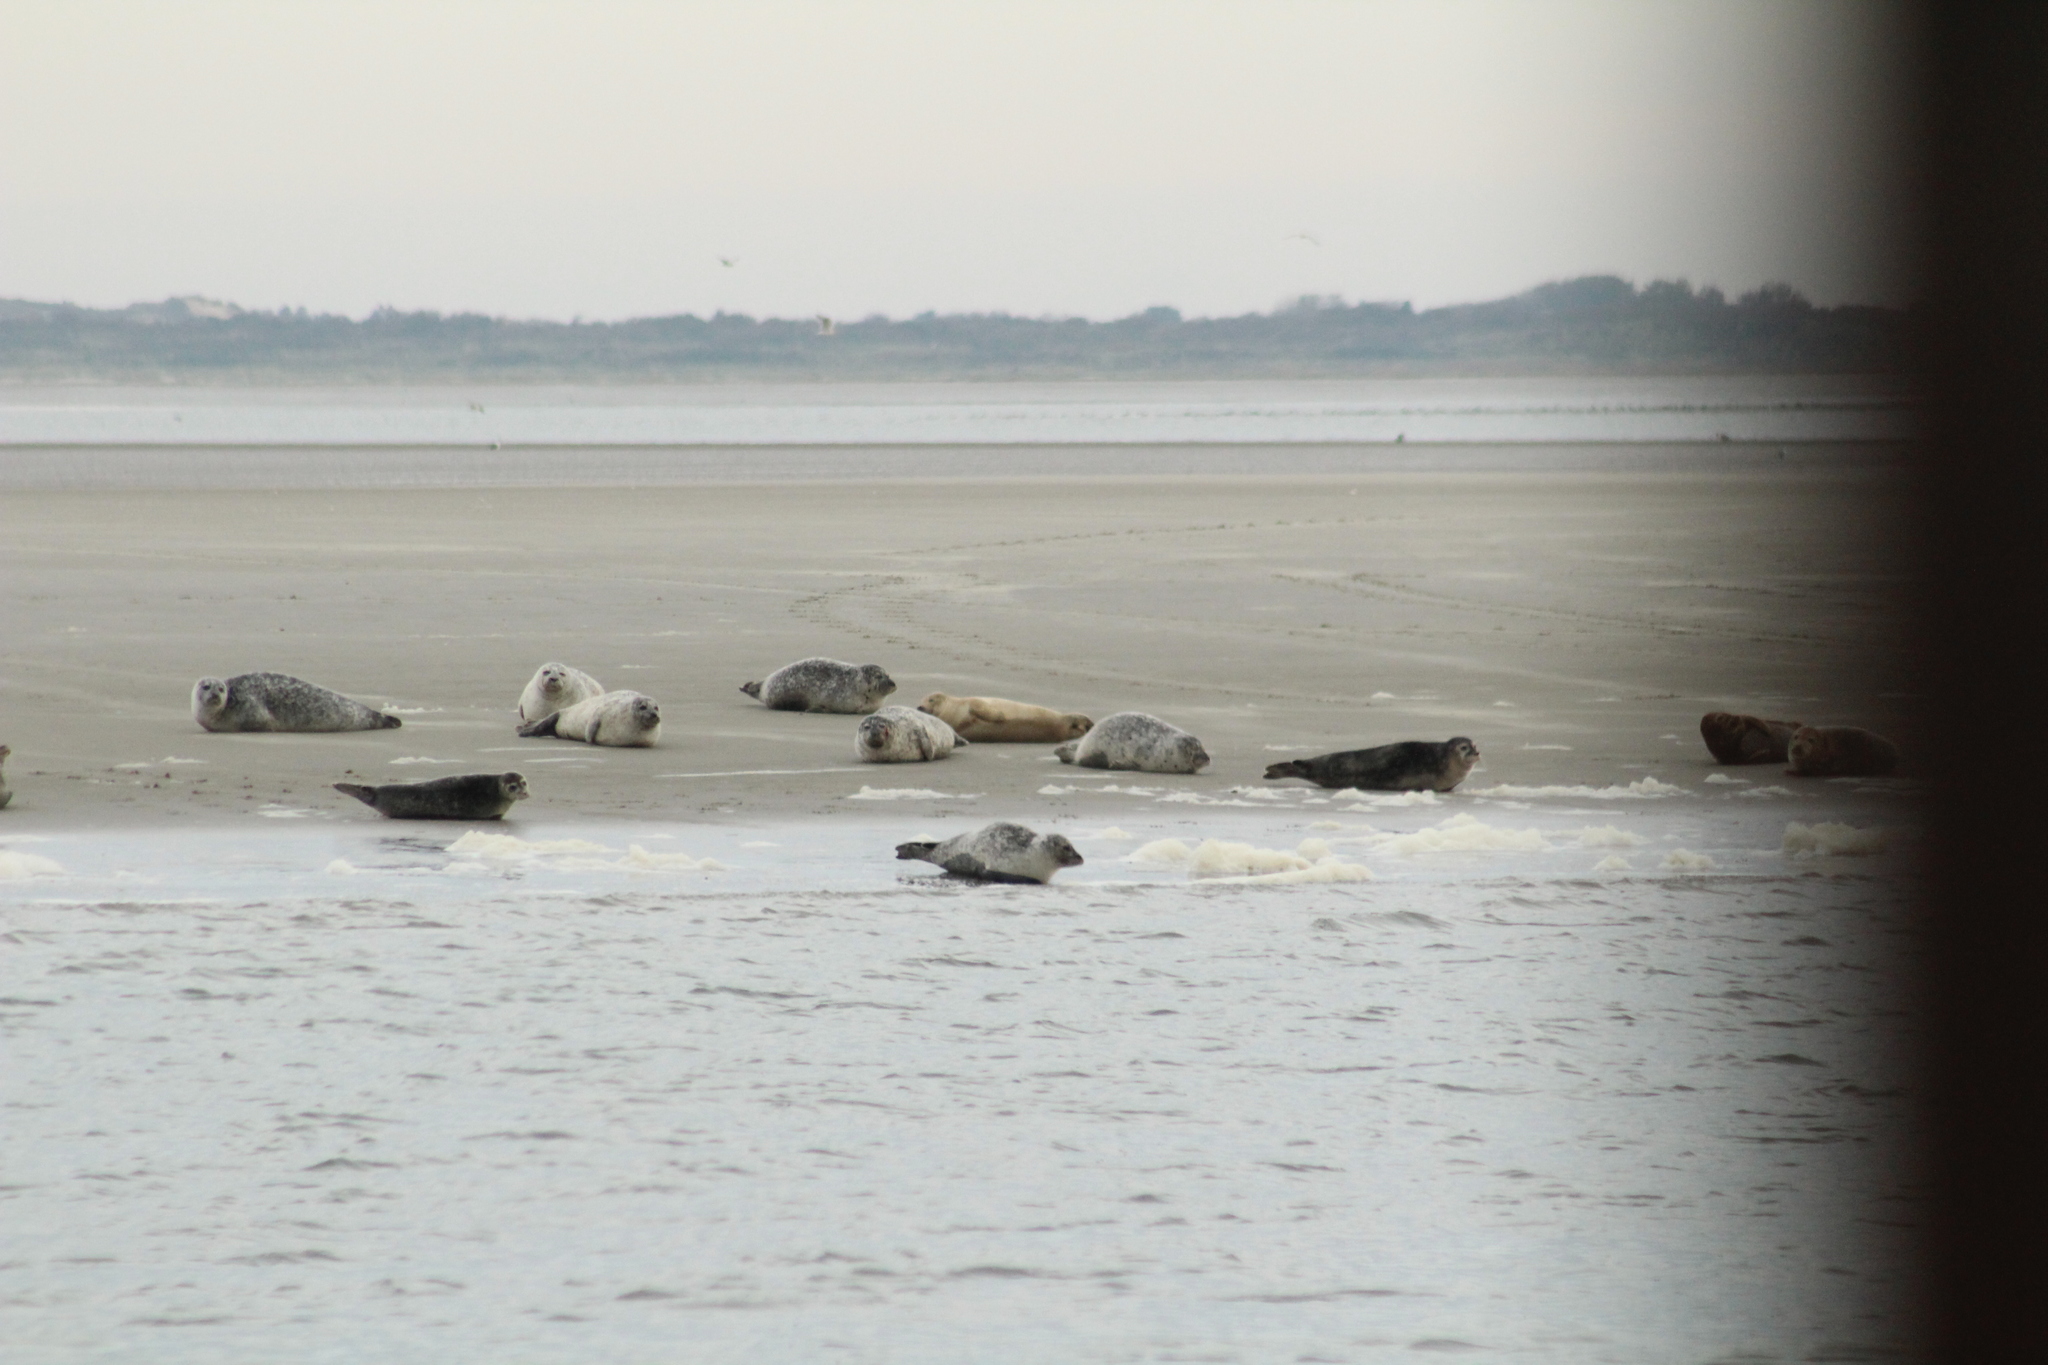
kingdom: Animalia
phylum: Chordata
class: Mammalia
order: Carnivora
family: Phocidae
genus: Phoca
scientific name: Phoca vitulina
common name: Harbor seal
